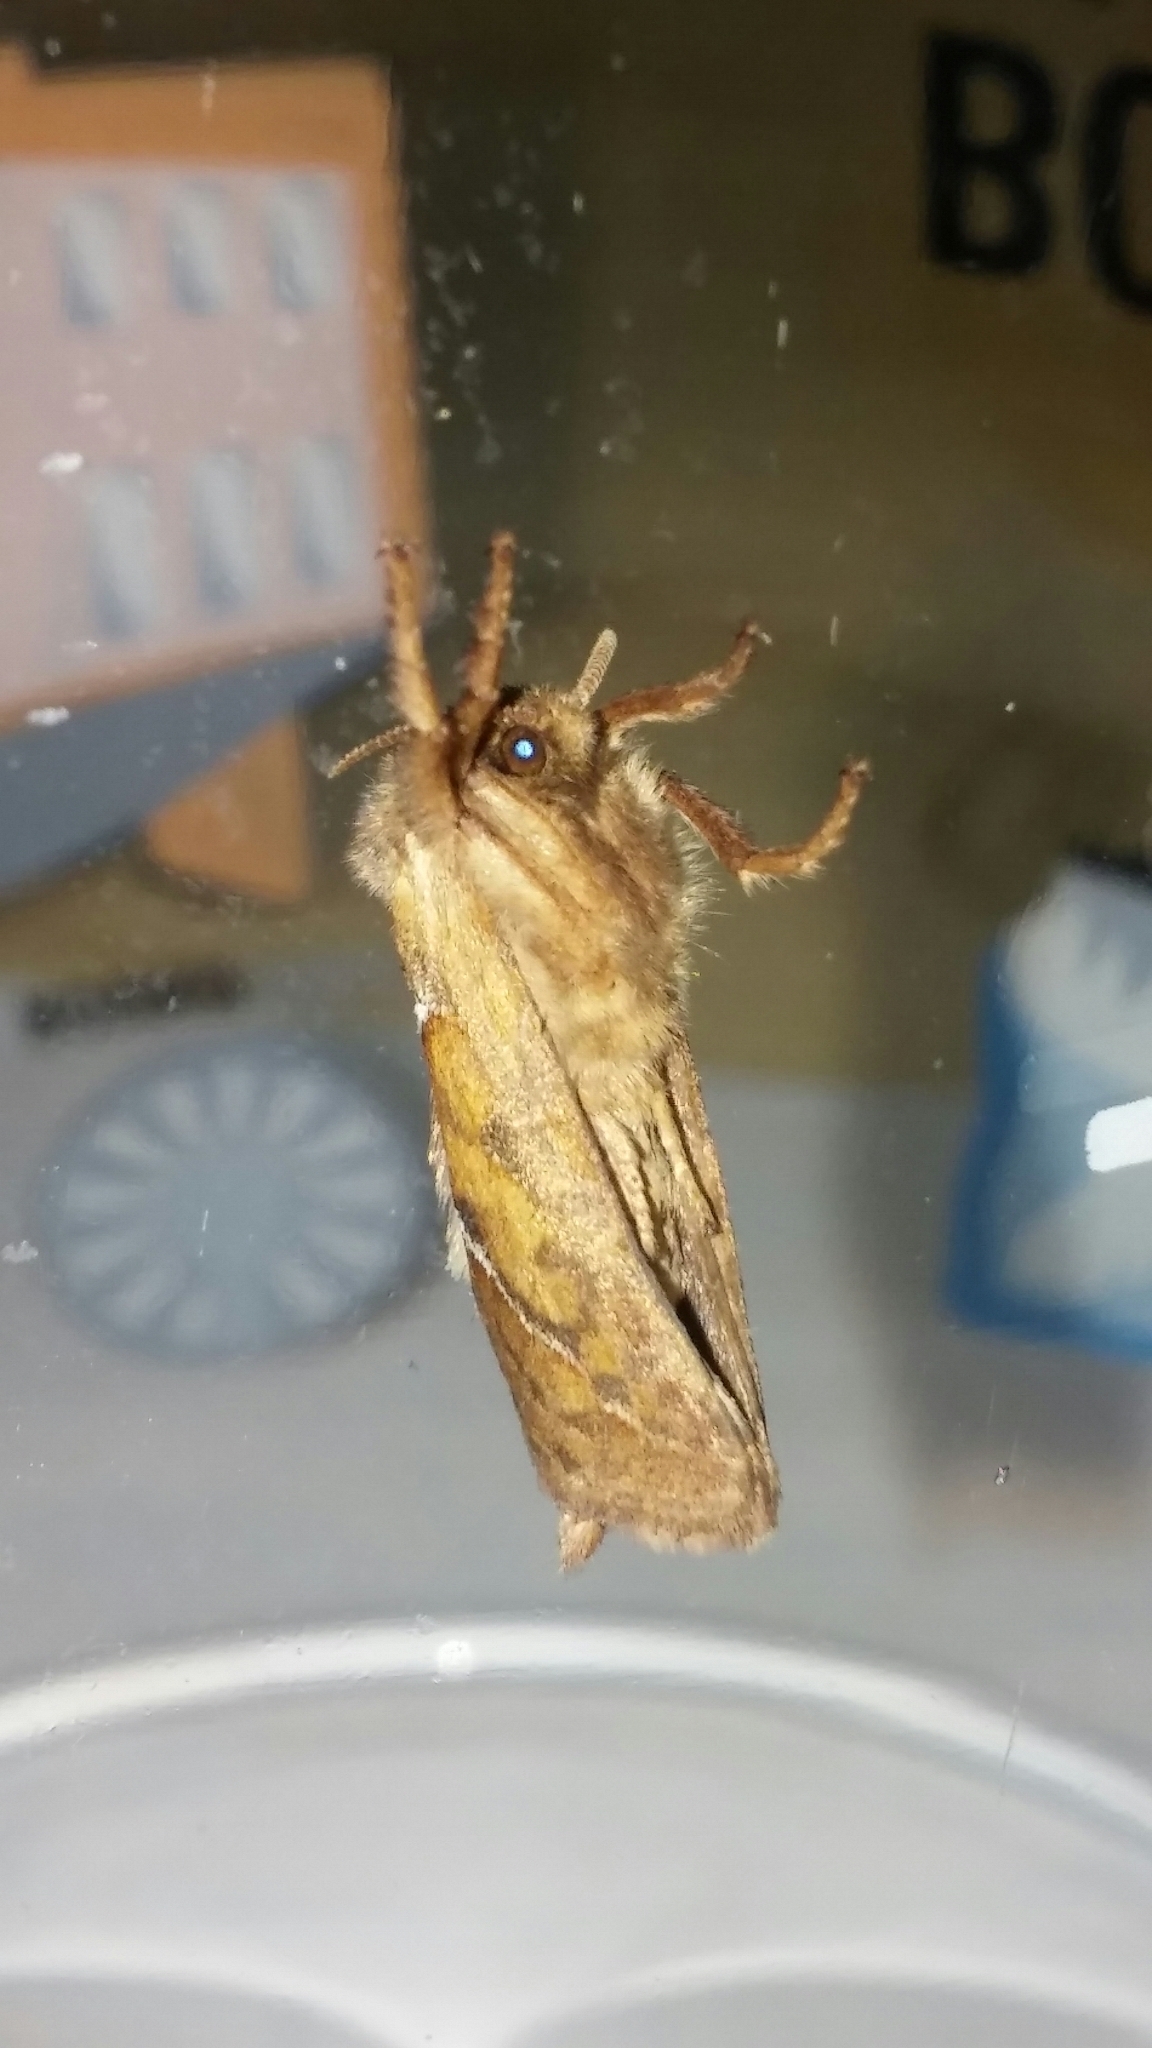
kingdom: Animalia
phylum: Arthropoda
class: Insecta
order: Lepidoptera
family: Hepialidae
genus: Triodia
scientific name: Triodia sylvina
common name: Orange swift
